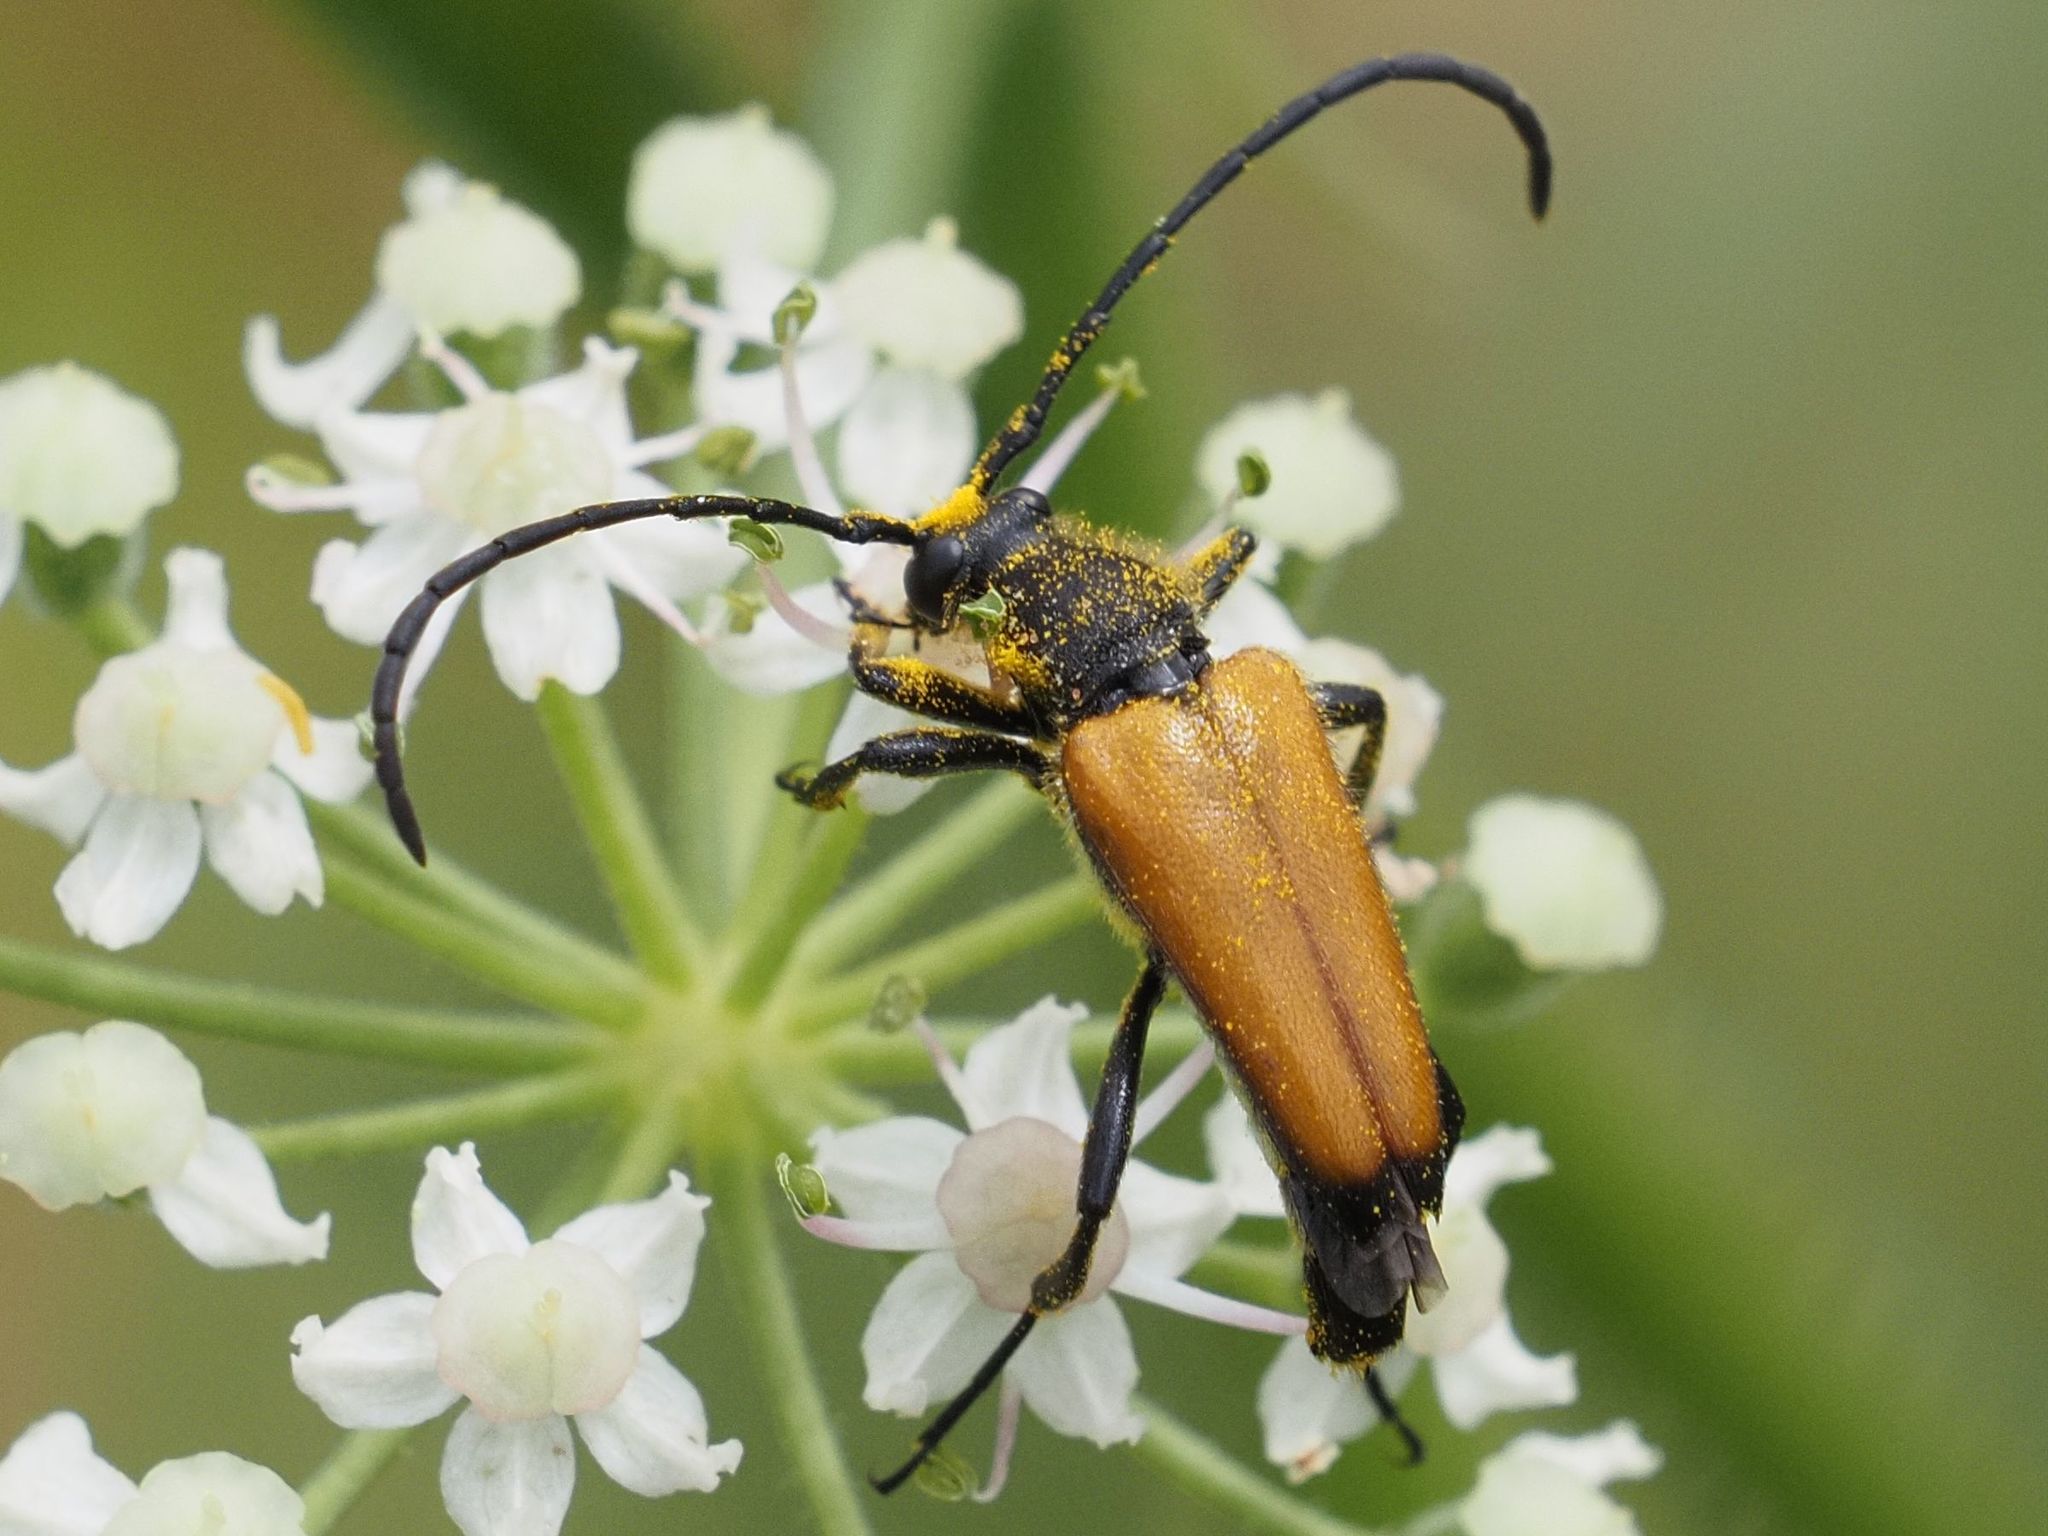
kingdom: Animalia
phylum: Arthropoda
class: Insecta
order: Coleoptera
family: Cerambycidae
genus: Paracorymbia
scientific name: Paracorymbia fulva
